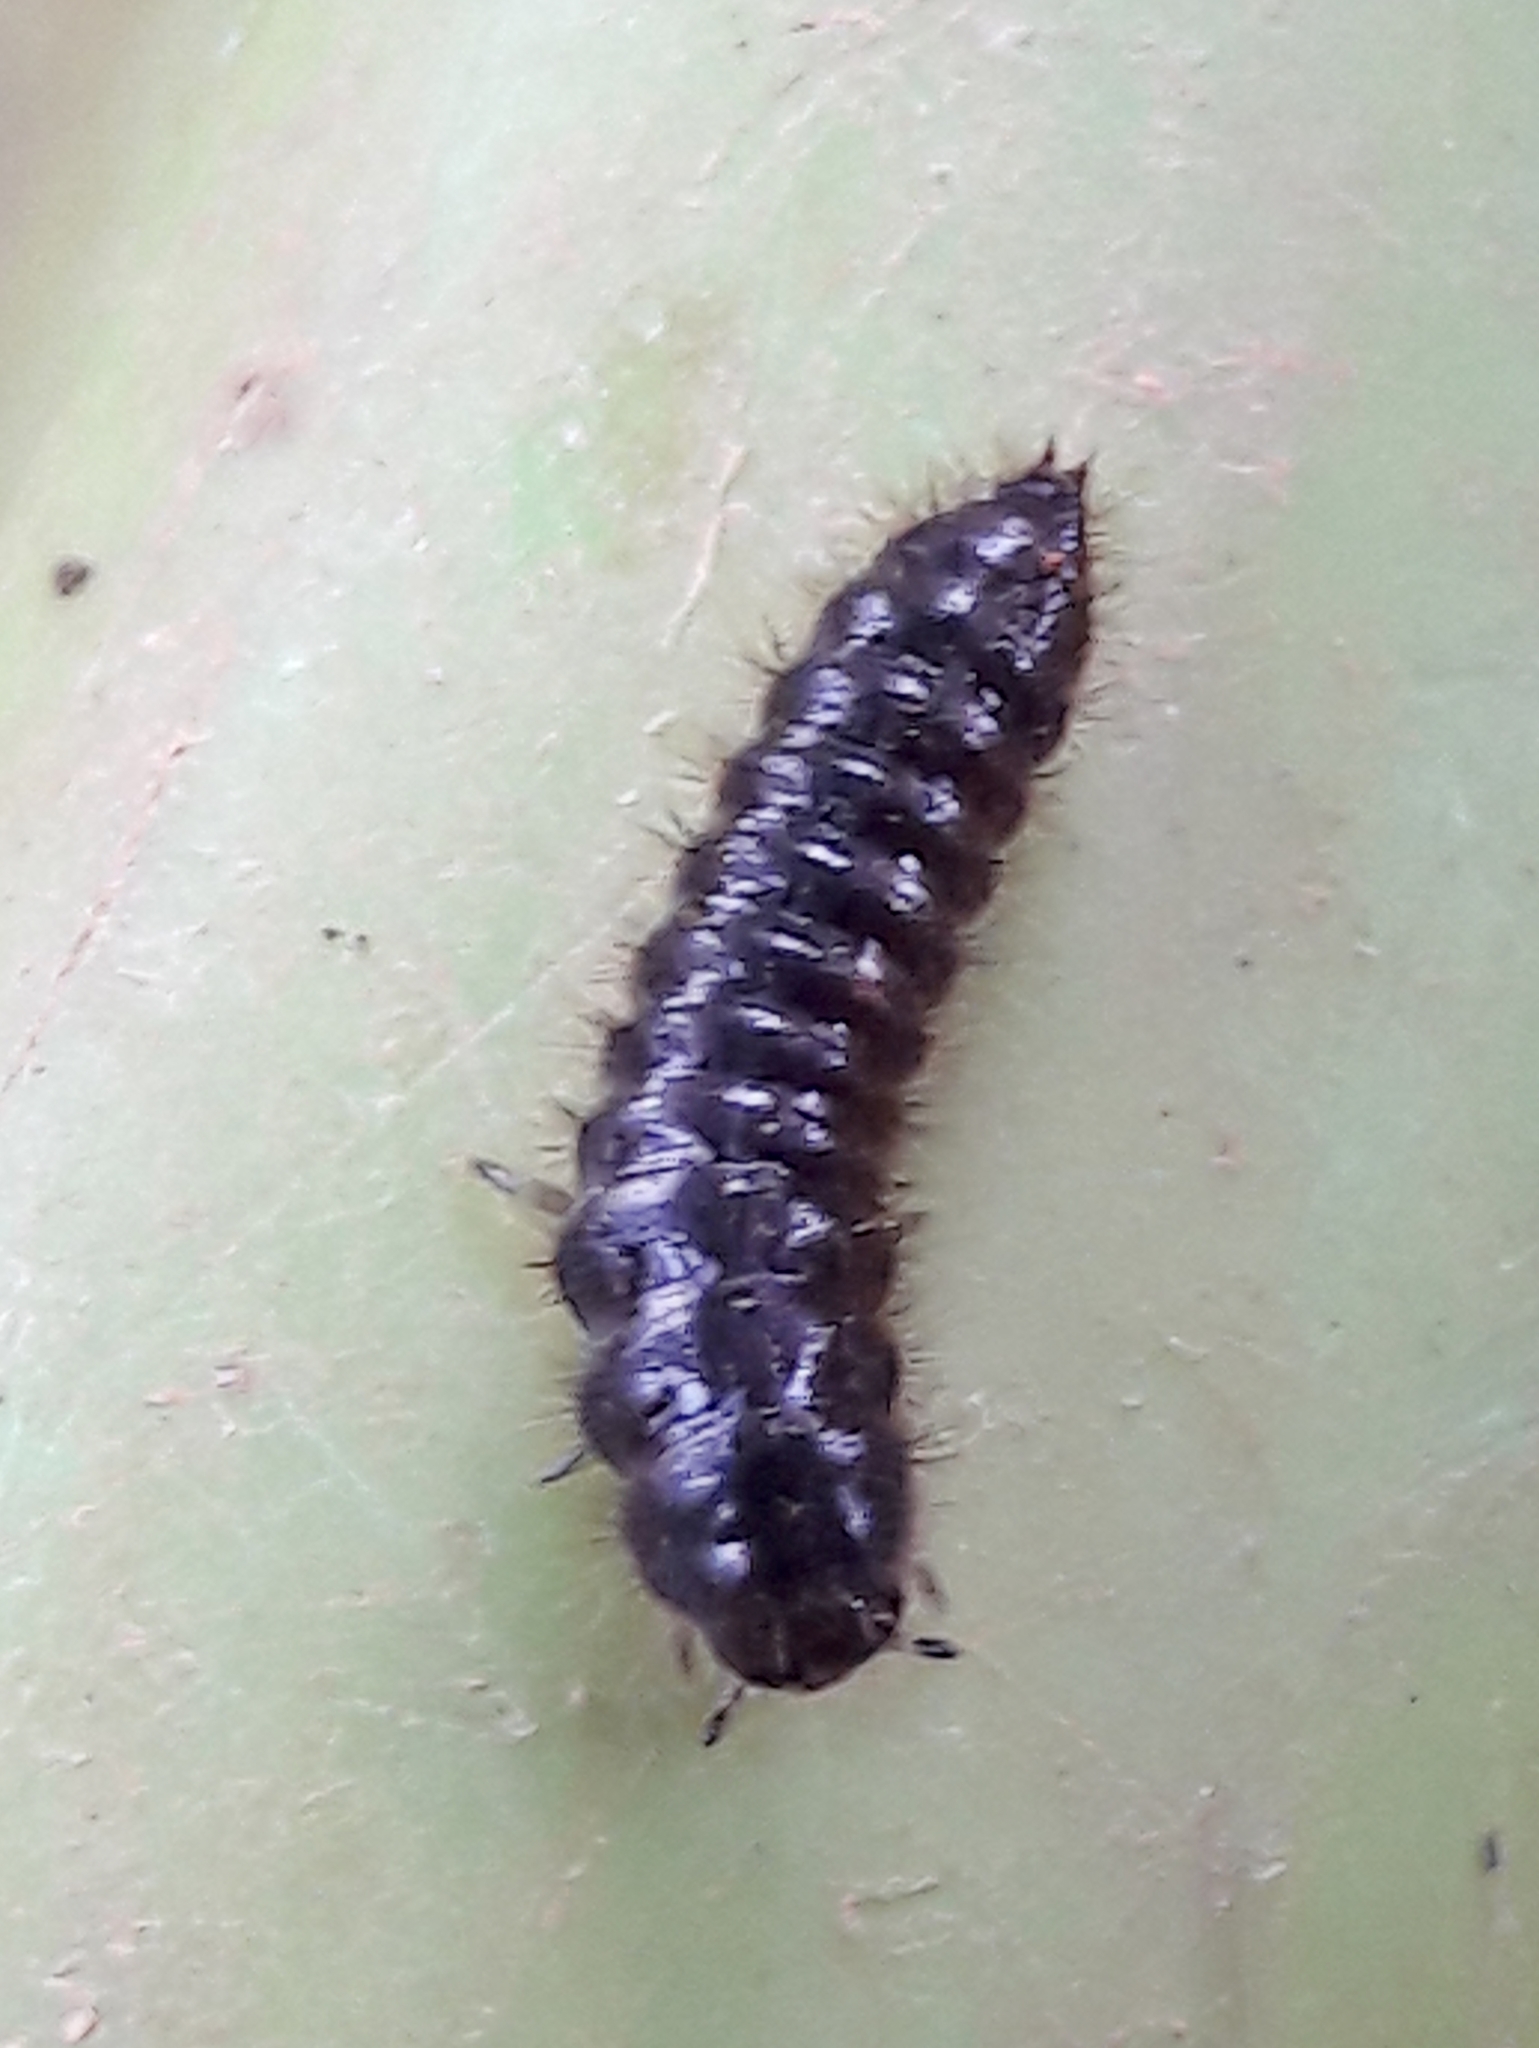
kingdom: Animalia
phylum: Arthropoda
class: Insecta
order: Coleoptera
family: Tenebrionidae
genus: Lagria
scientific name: Lagria villosa
